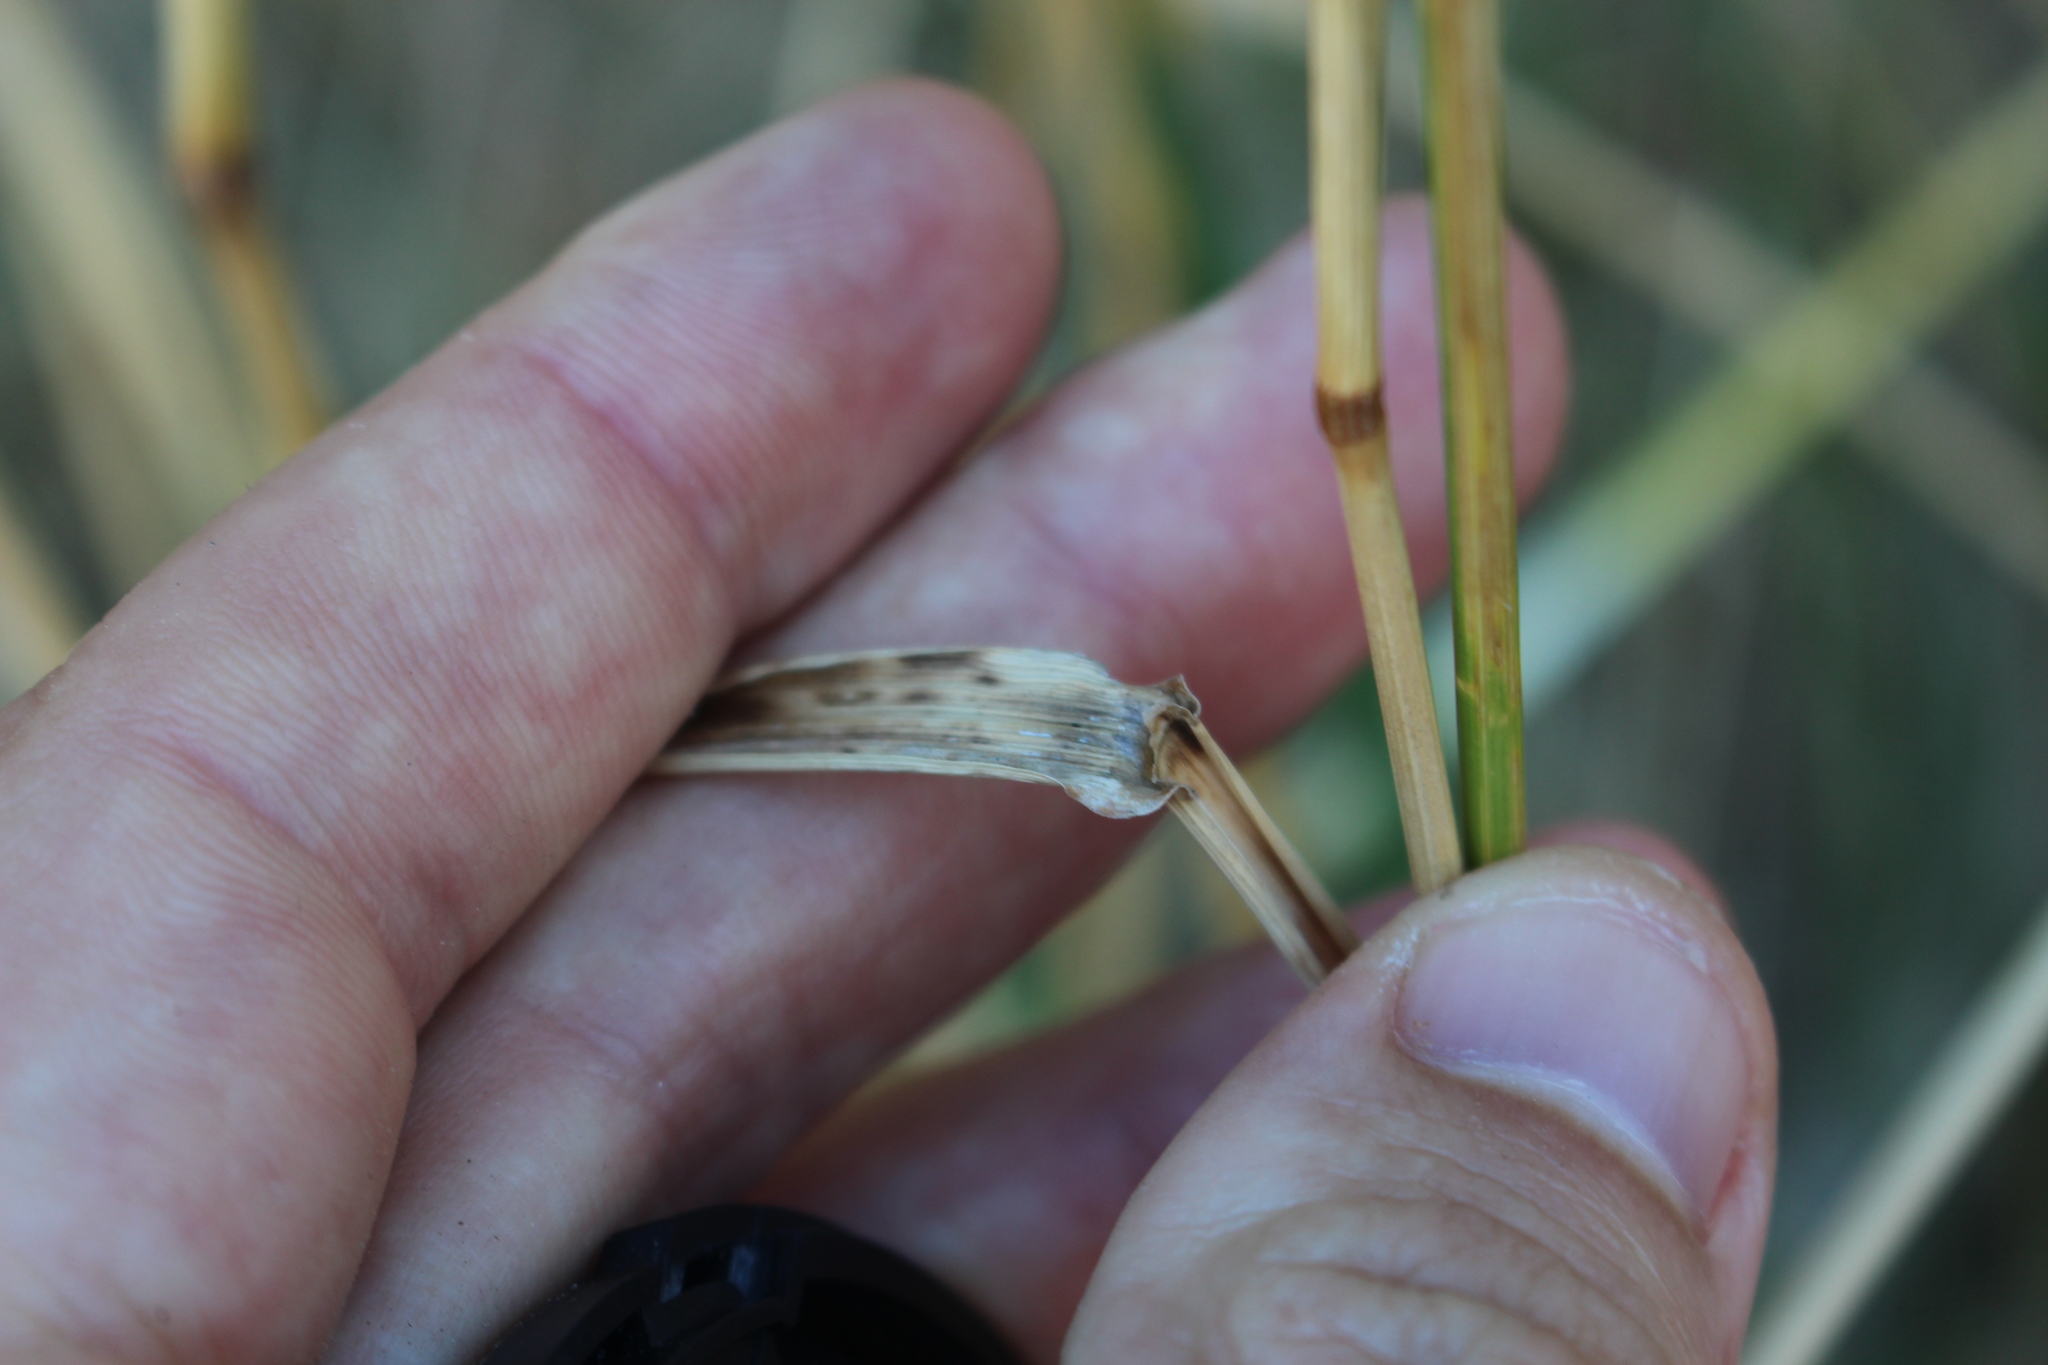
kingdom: Plantae
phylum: Tracheophyta
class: Liliopsida
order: Poales
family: Poaceae
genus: Lolium
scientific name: Lolium arundinaceum
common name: Reed fescue
